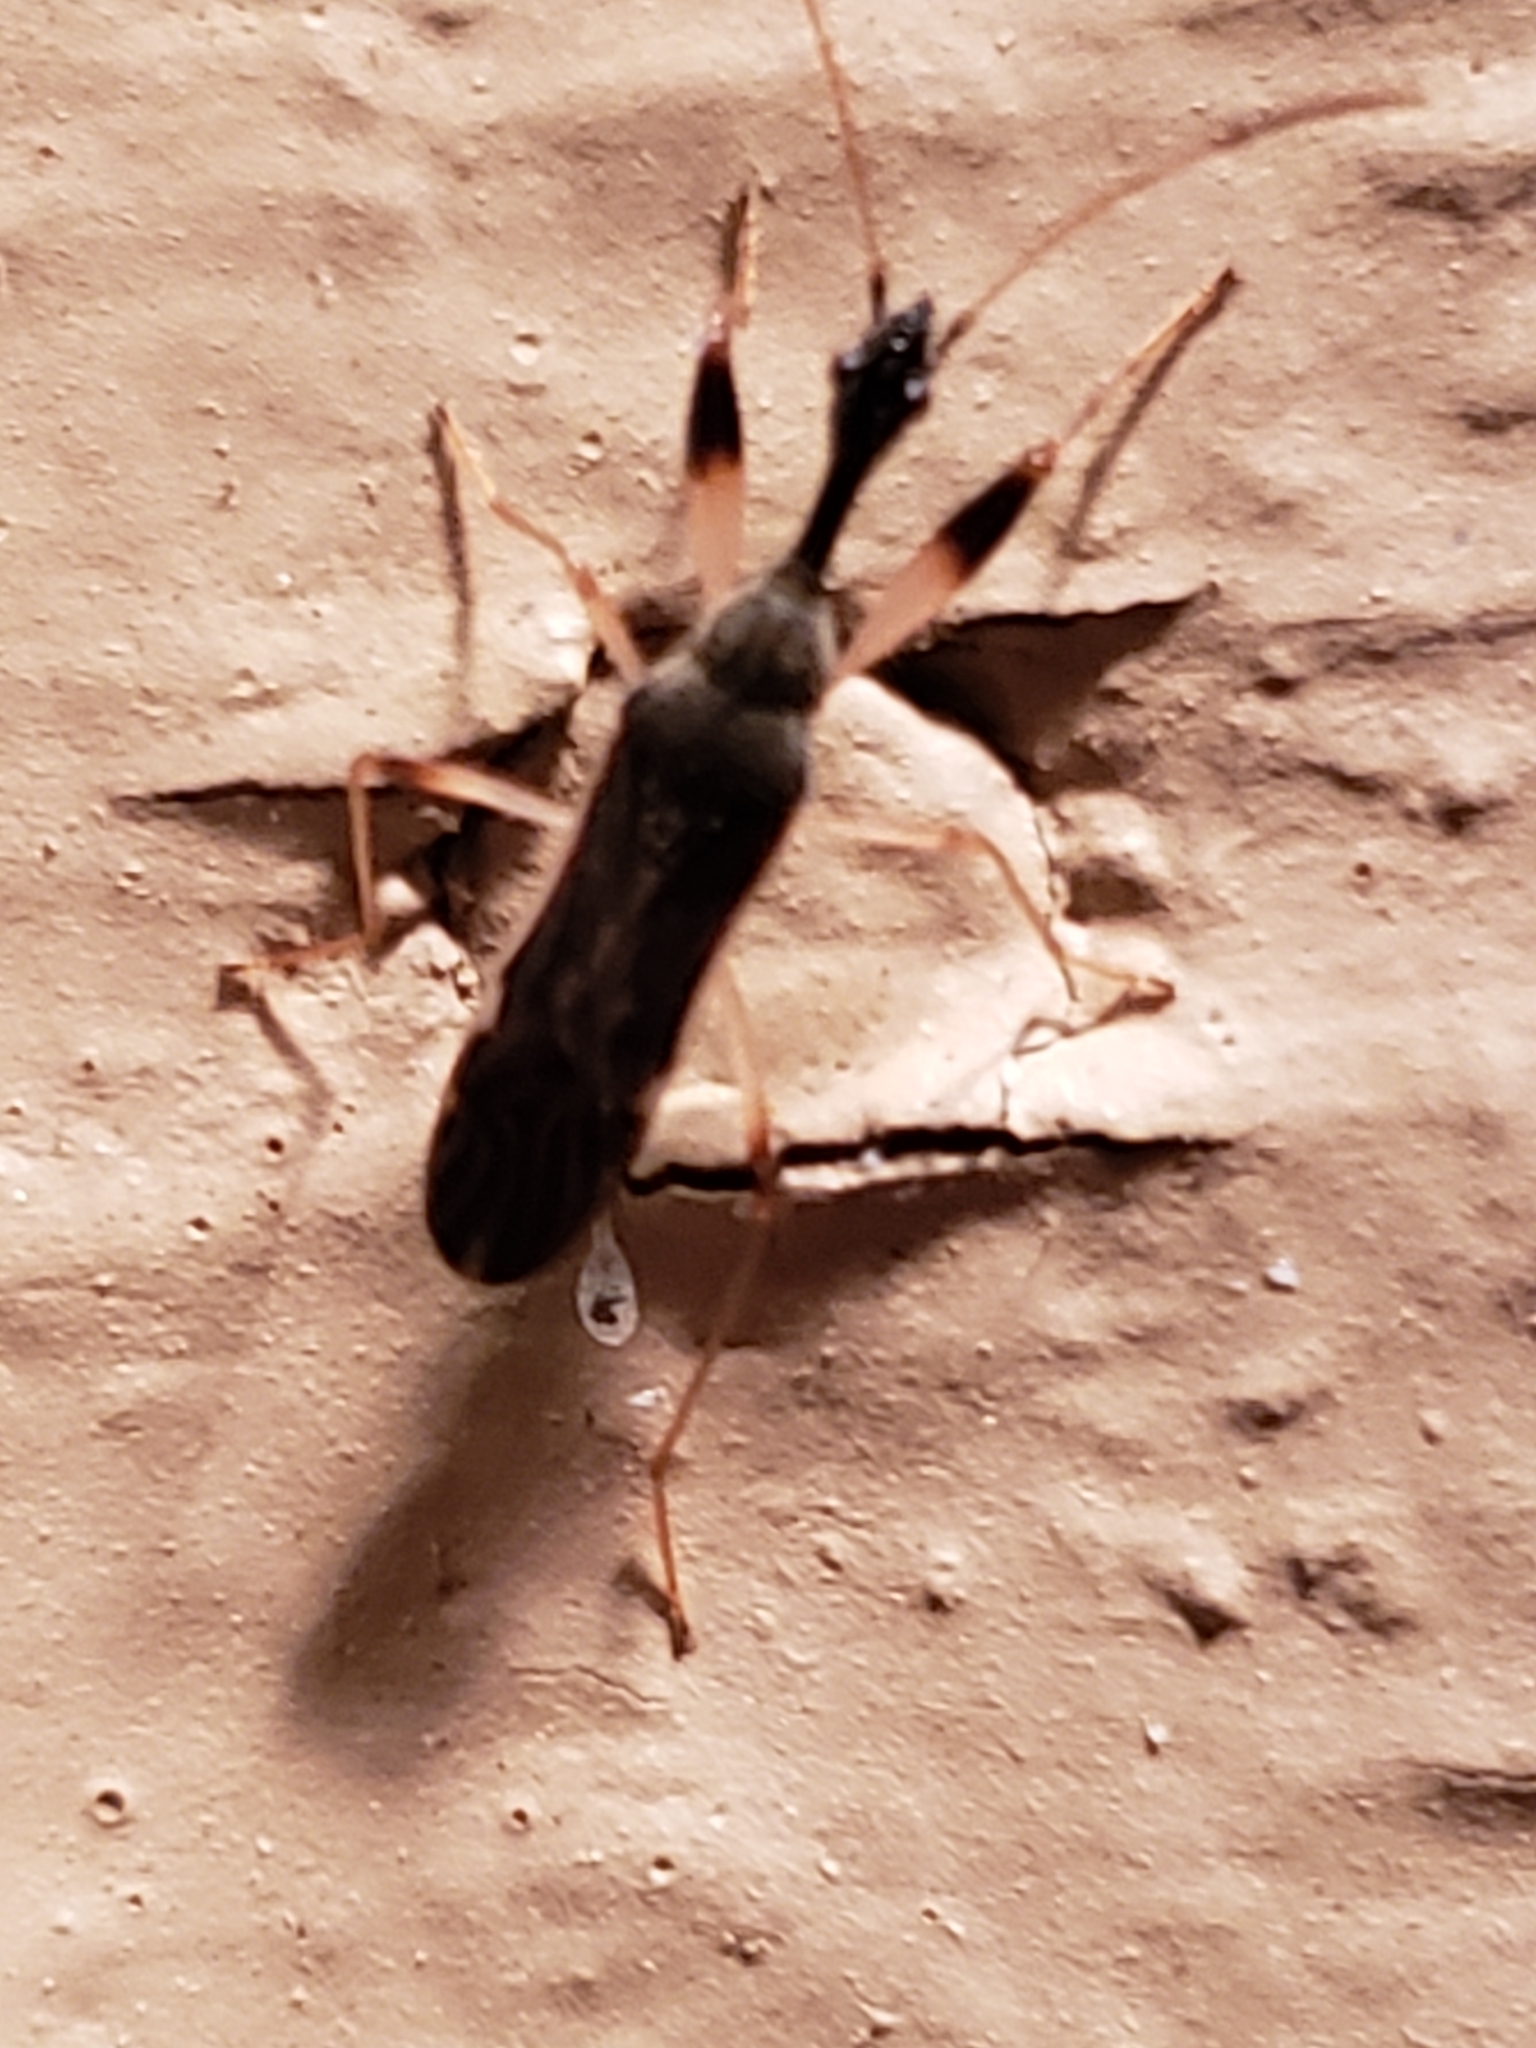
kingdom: Animalia
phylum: Arthropoda
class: Insecta
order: Hemiptera
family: Rhyparochromidae
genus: Myodocha
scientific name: Myodocha serripes
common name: Long-necked seed bug
